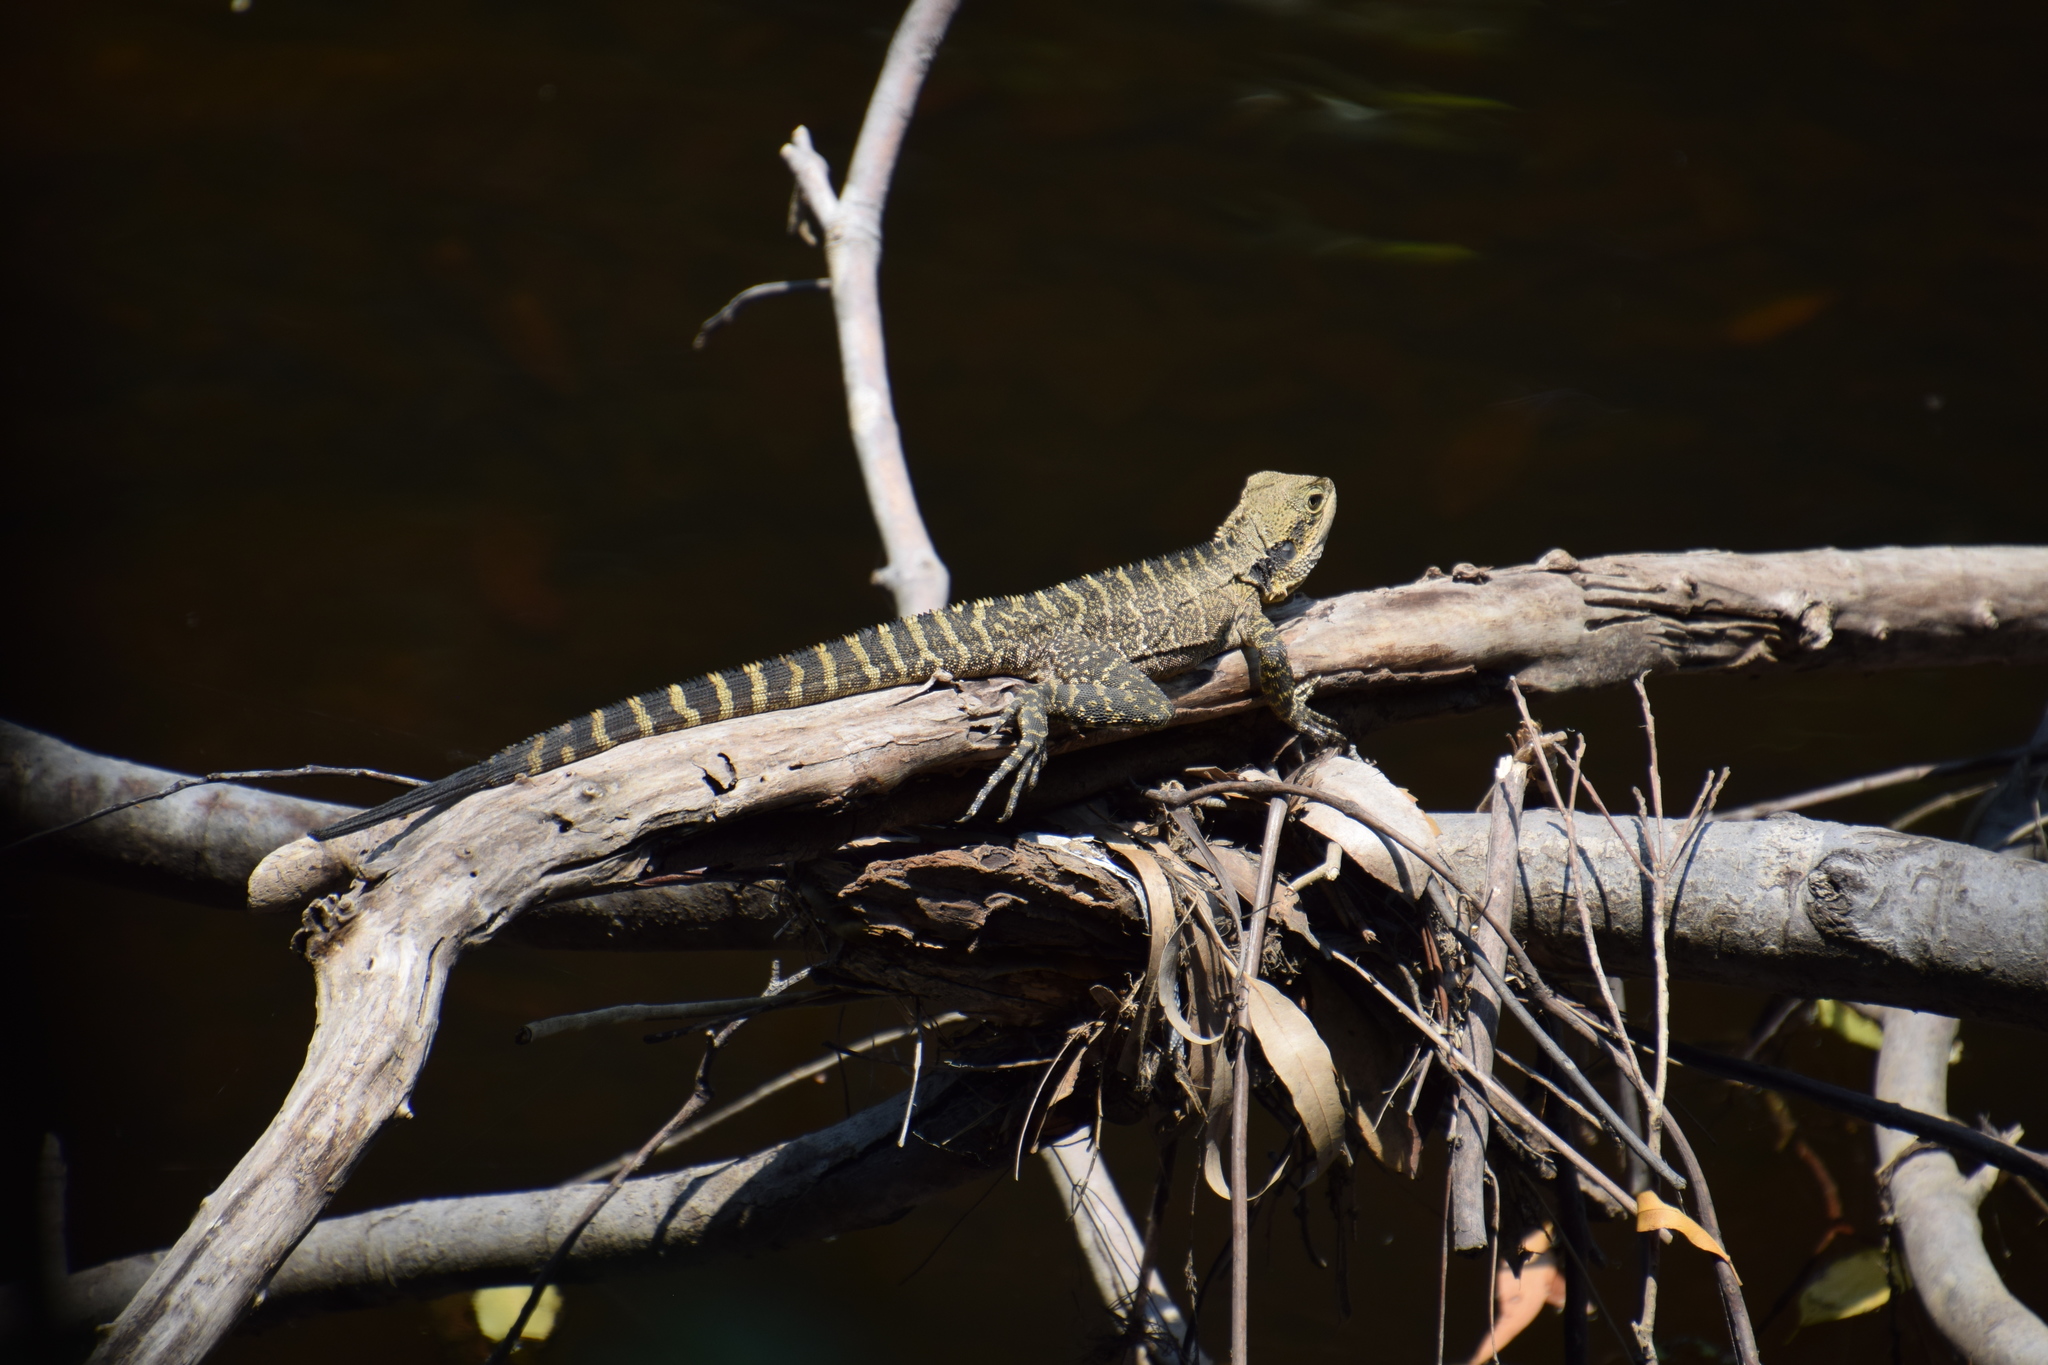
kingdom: Animalia
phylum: Chordata
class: Squamata
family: Agamidae
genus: Intellagama
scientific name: Intellagama lesueurii
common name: Eastern water dragon
